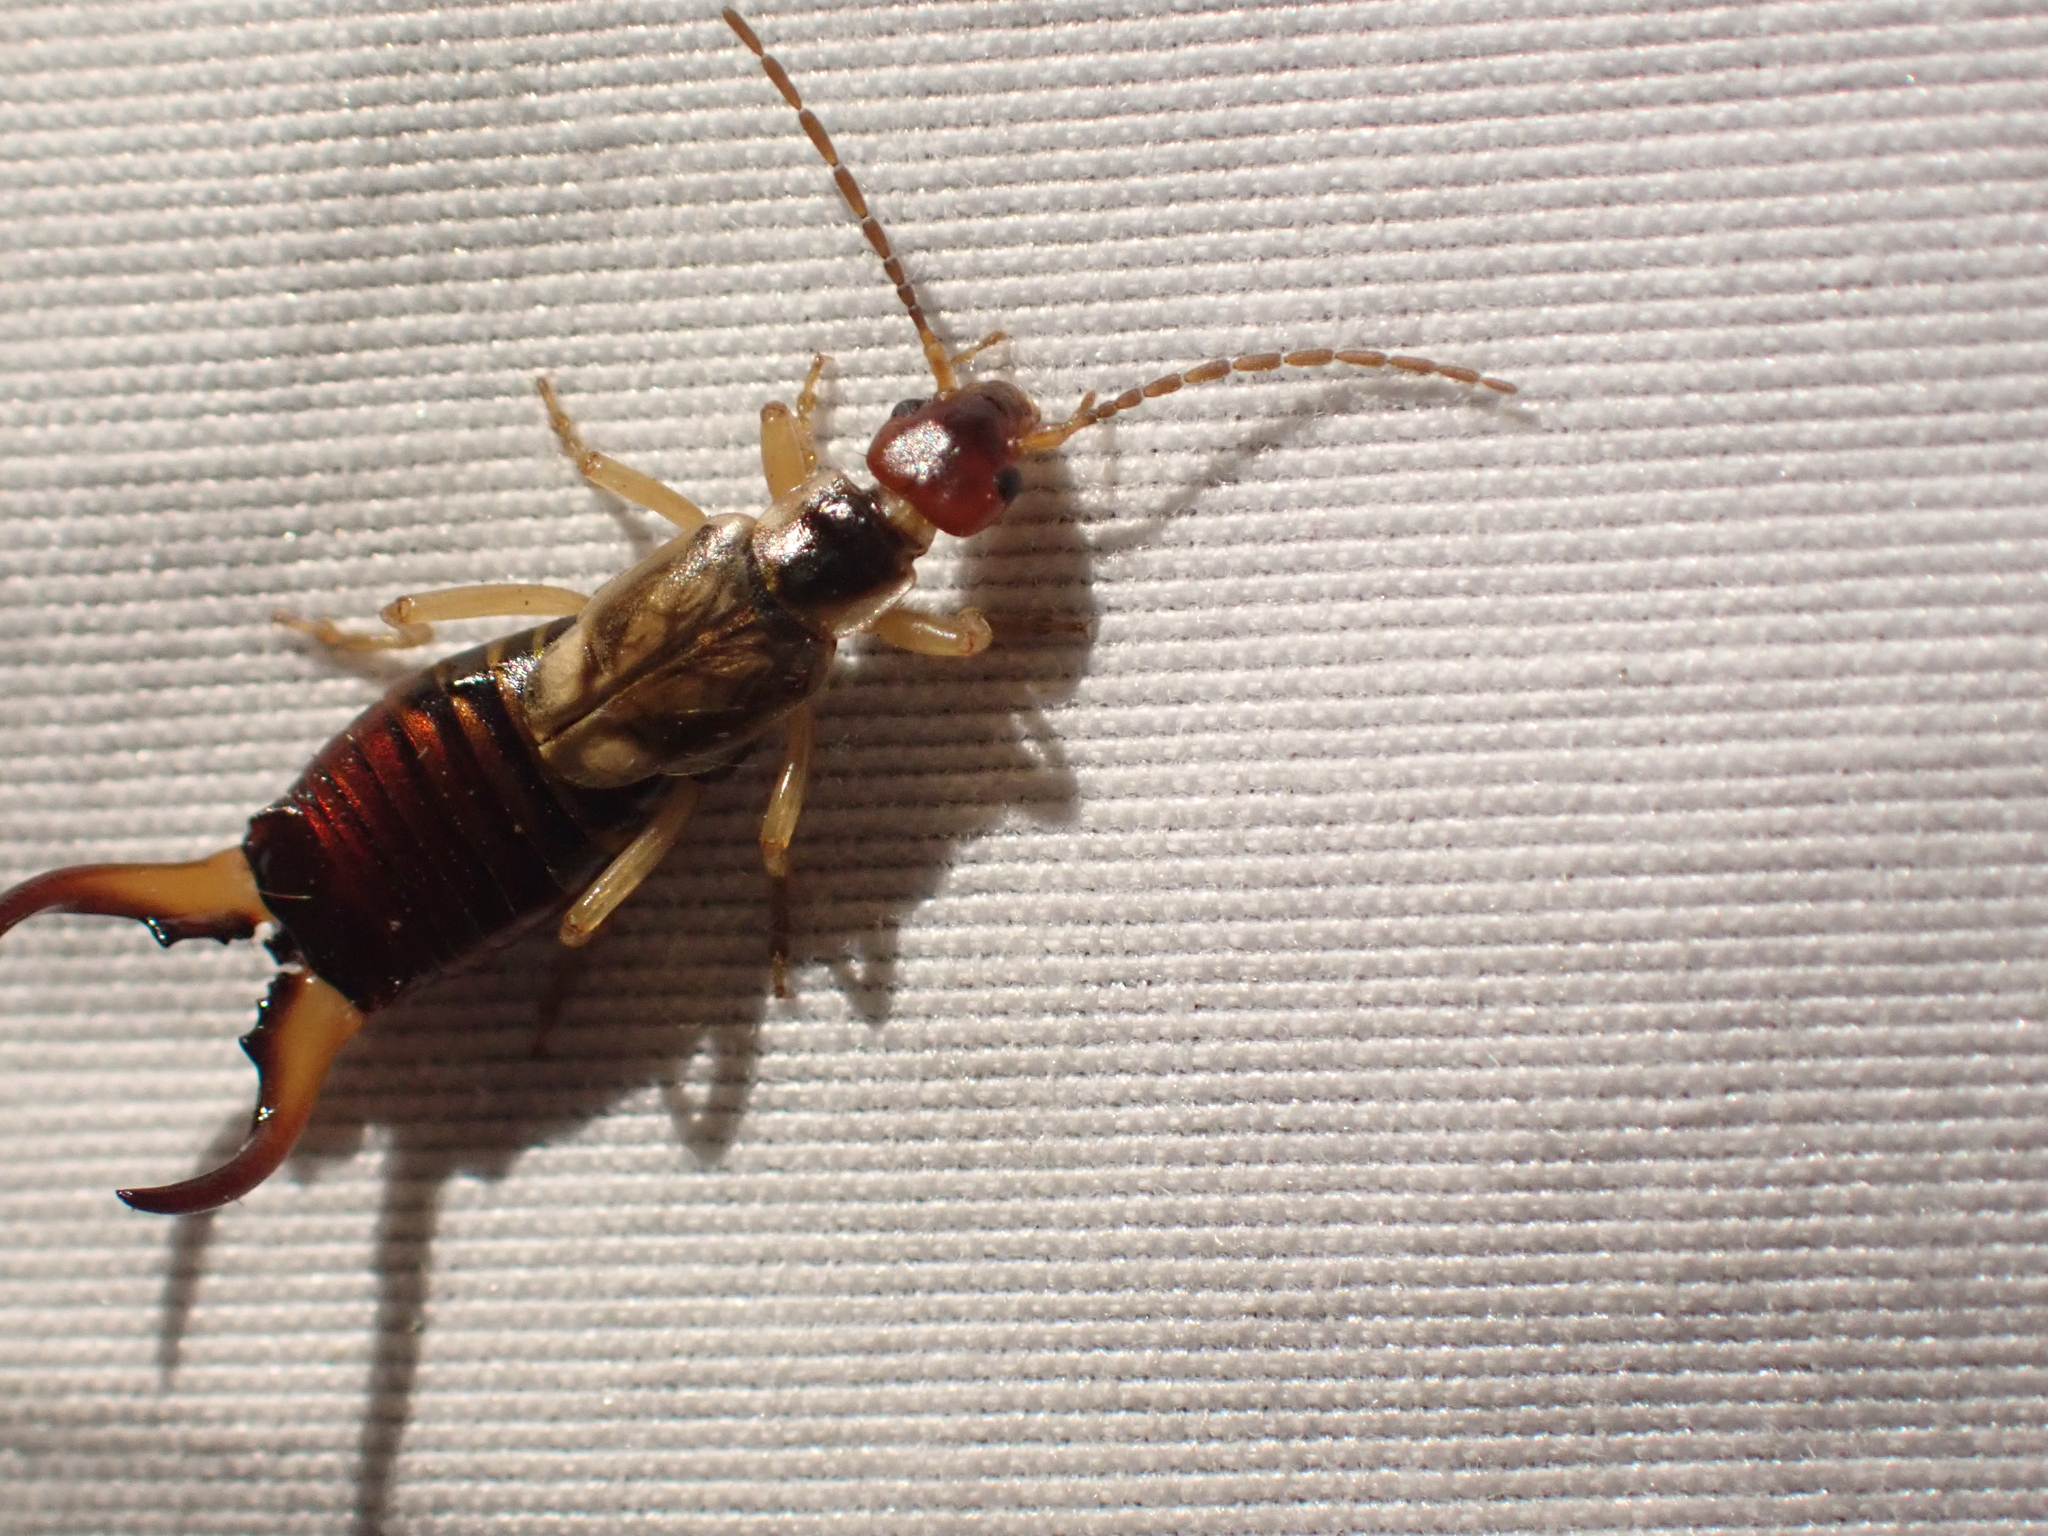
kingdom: Animalia
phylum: Arthropoda
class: Insecta
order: Dermaptera
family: Forficulidae
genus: Forficula
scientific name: Forficula
